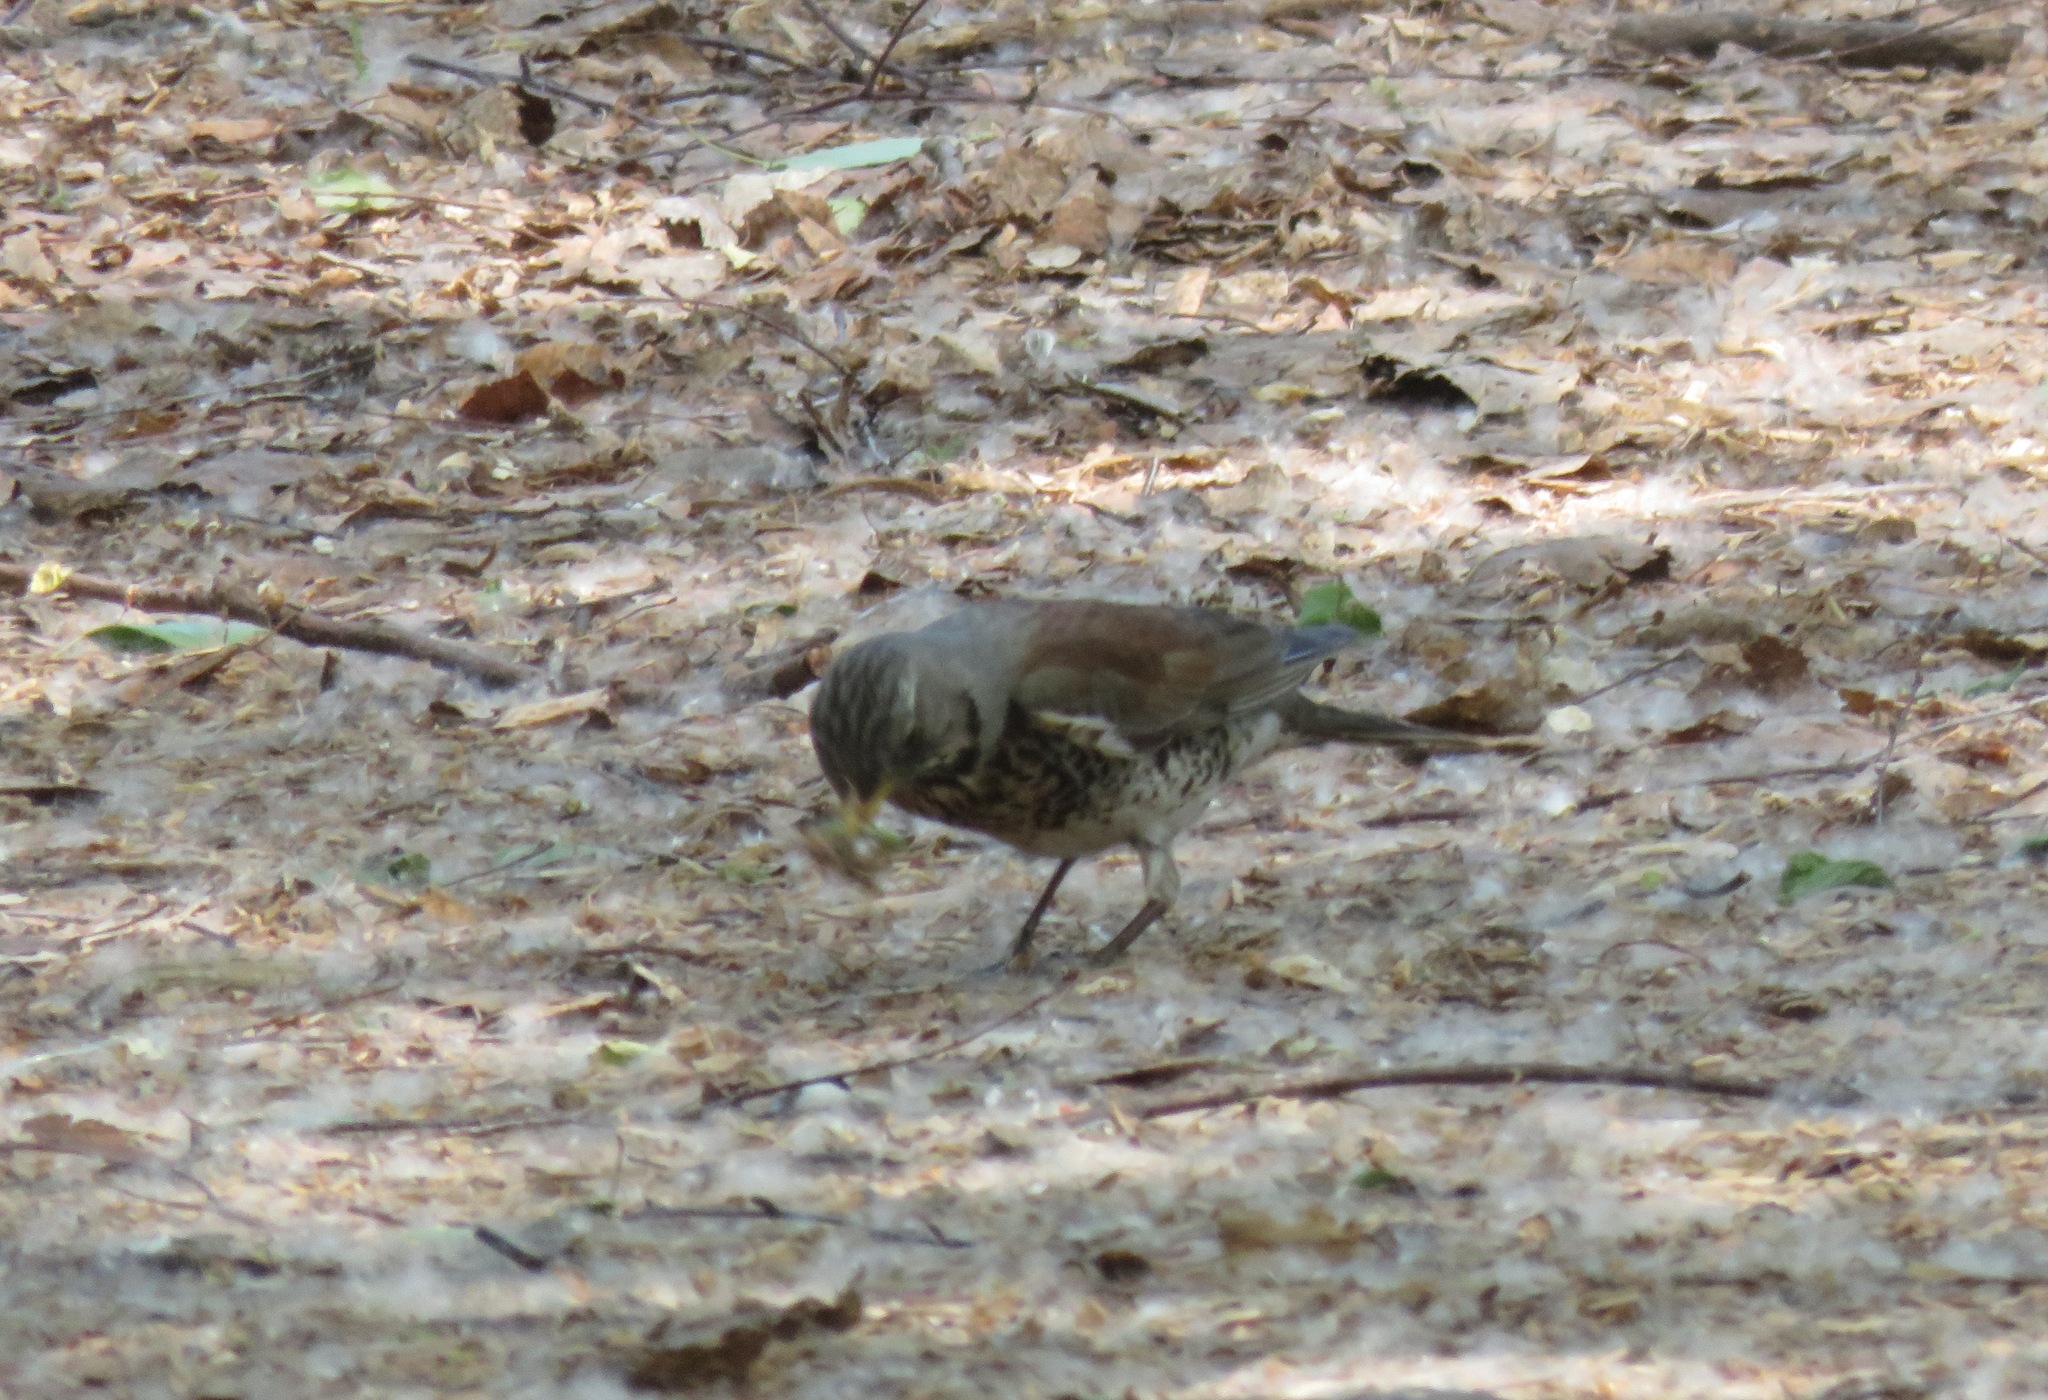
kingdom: Animalia
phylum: Chordata
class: Aves
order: Passeriformes
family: Turdidae
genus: Turdus
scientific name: Turdus pilaris
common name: Fieldfare
